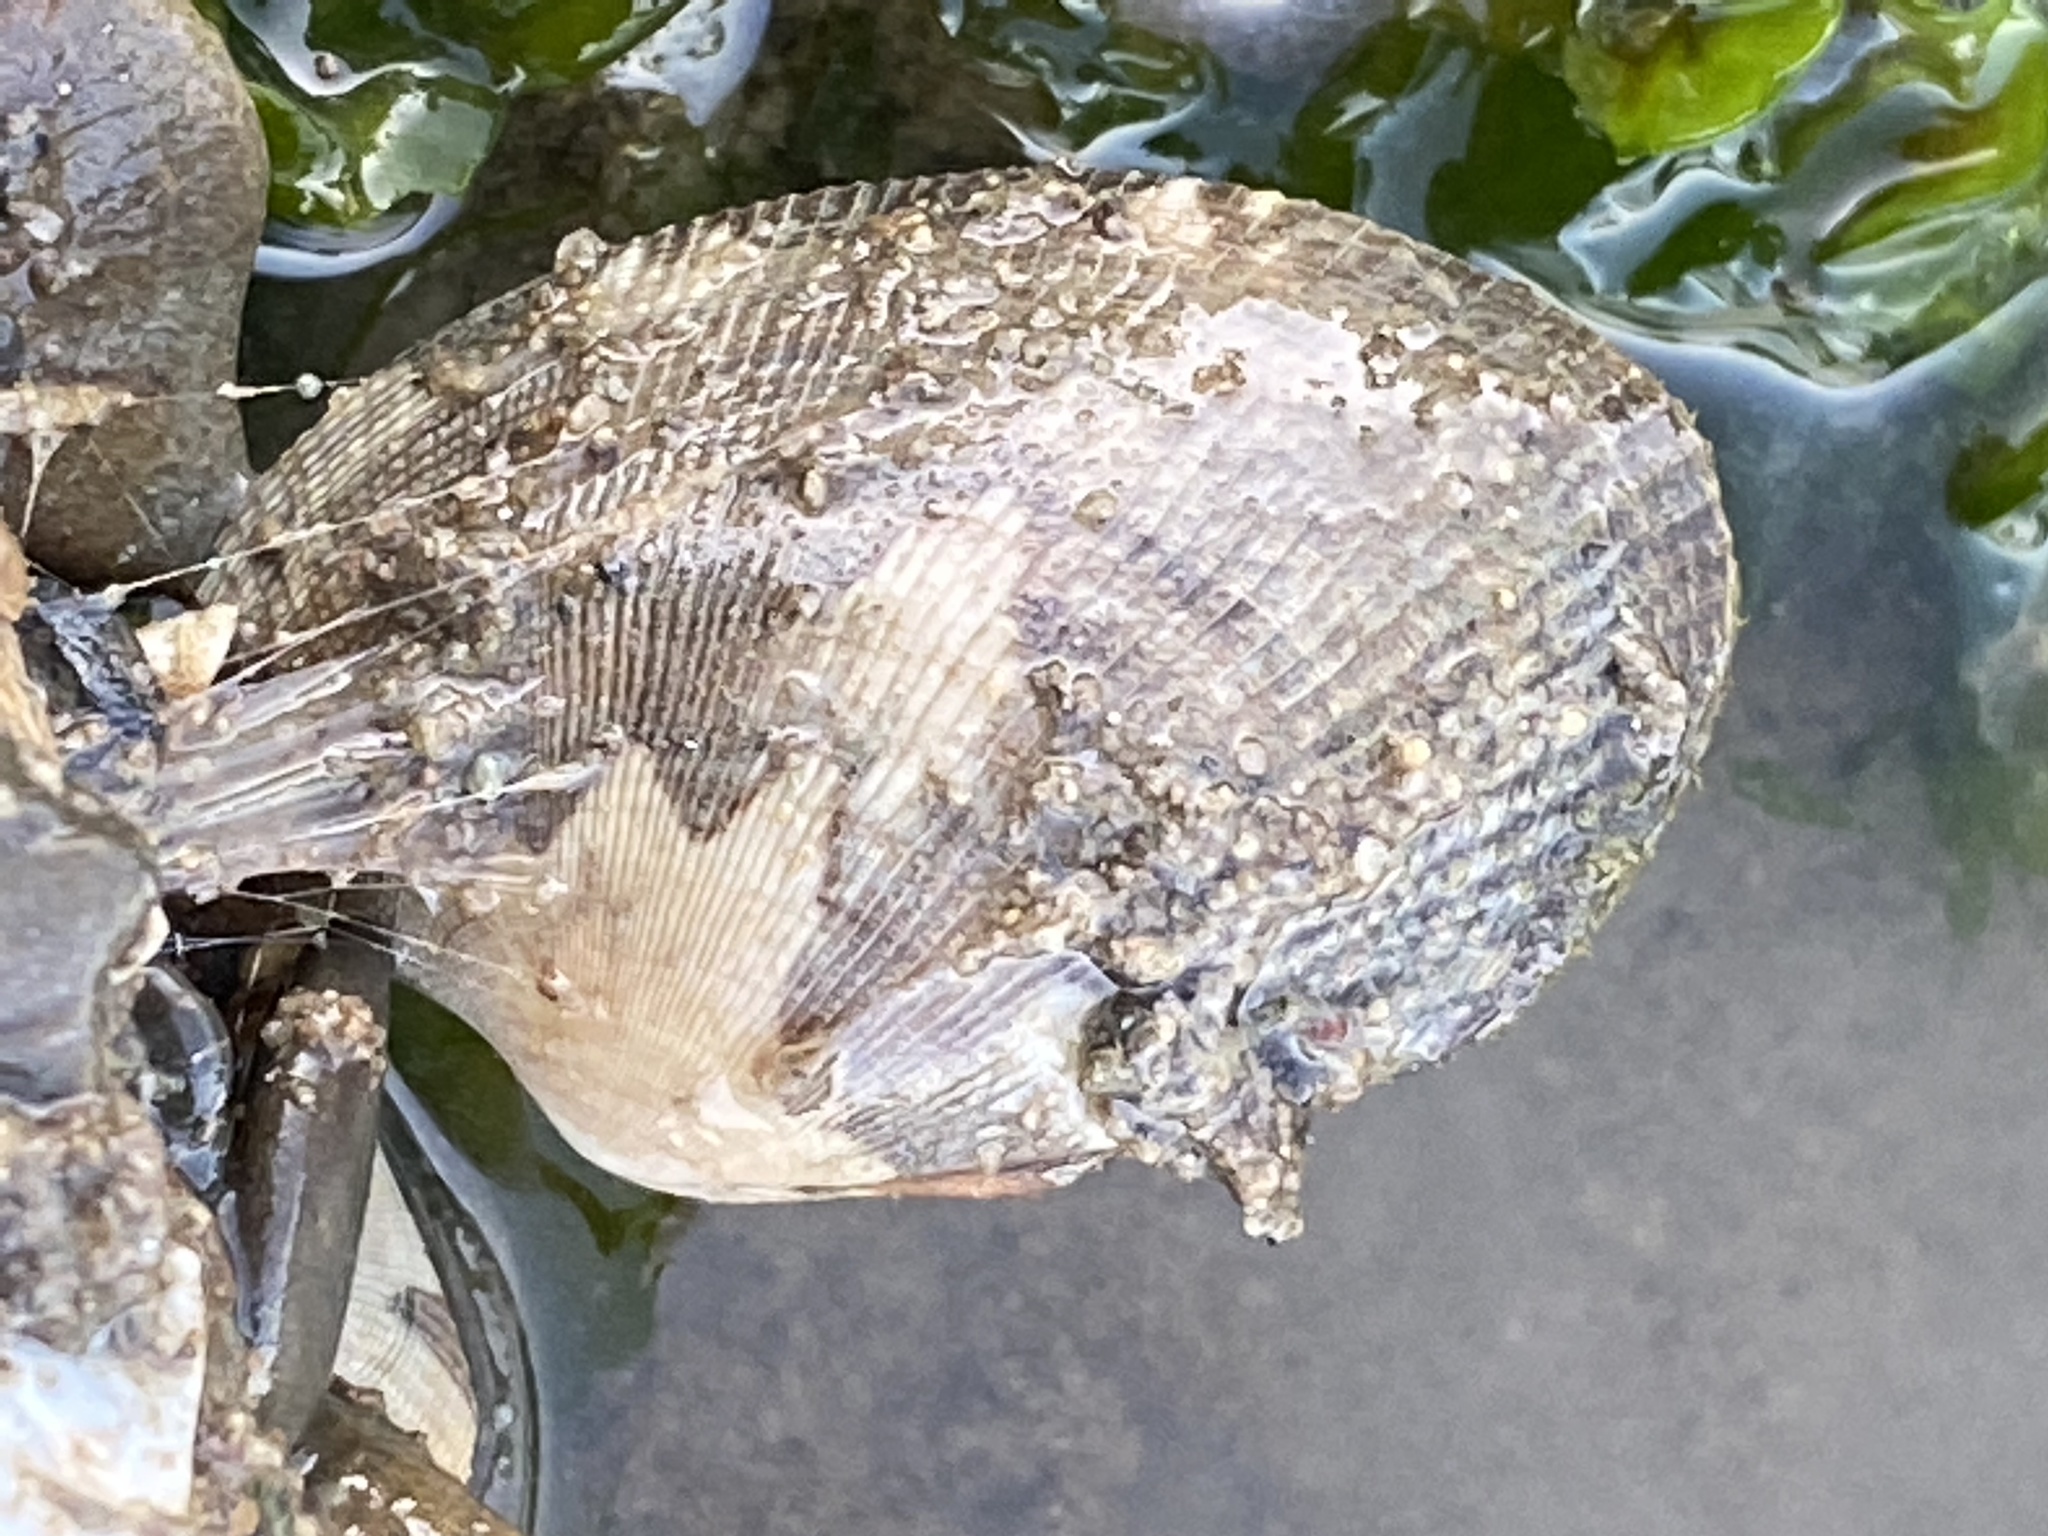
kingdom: Animalia
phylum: Mollusca
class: Bivalvia
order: Venerida
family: Veneridae
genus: Ruditapes
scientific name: Ruditapes philippinarum
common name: Manila clam
